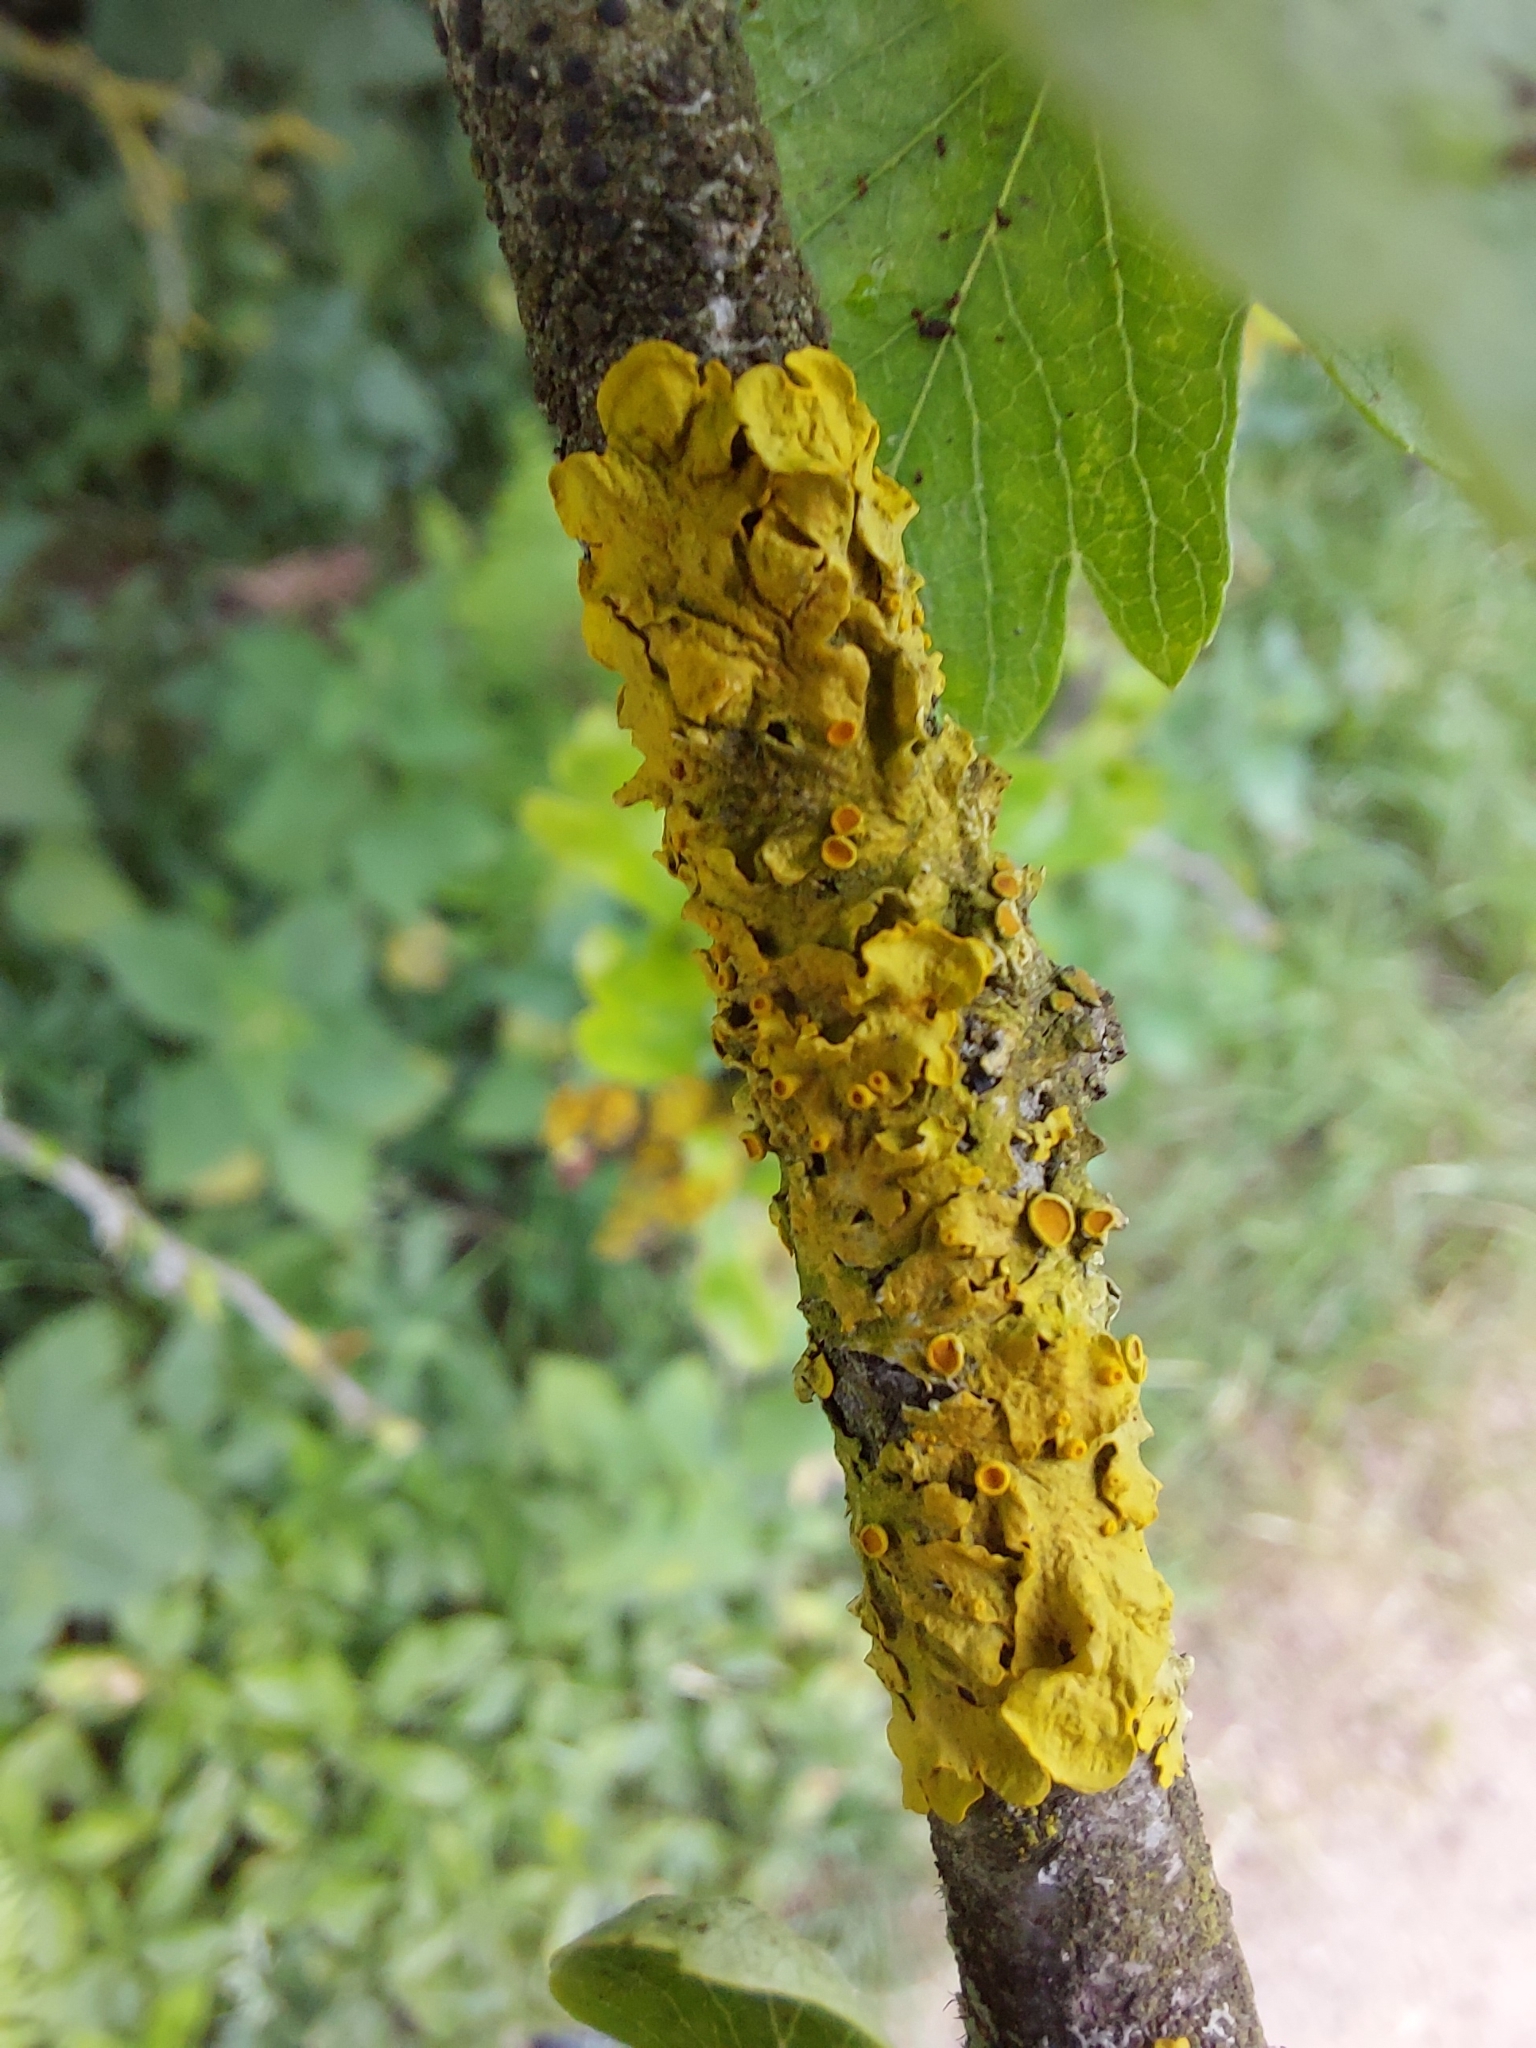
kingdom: Fungi
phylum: Ascomycota
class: Lecanoromycetes
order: Teloschistales
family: Teloschistaceae
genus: Xanthoria
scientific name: Xanthoria parietina
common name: Common orange lichen
